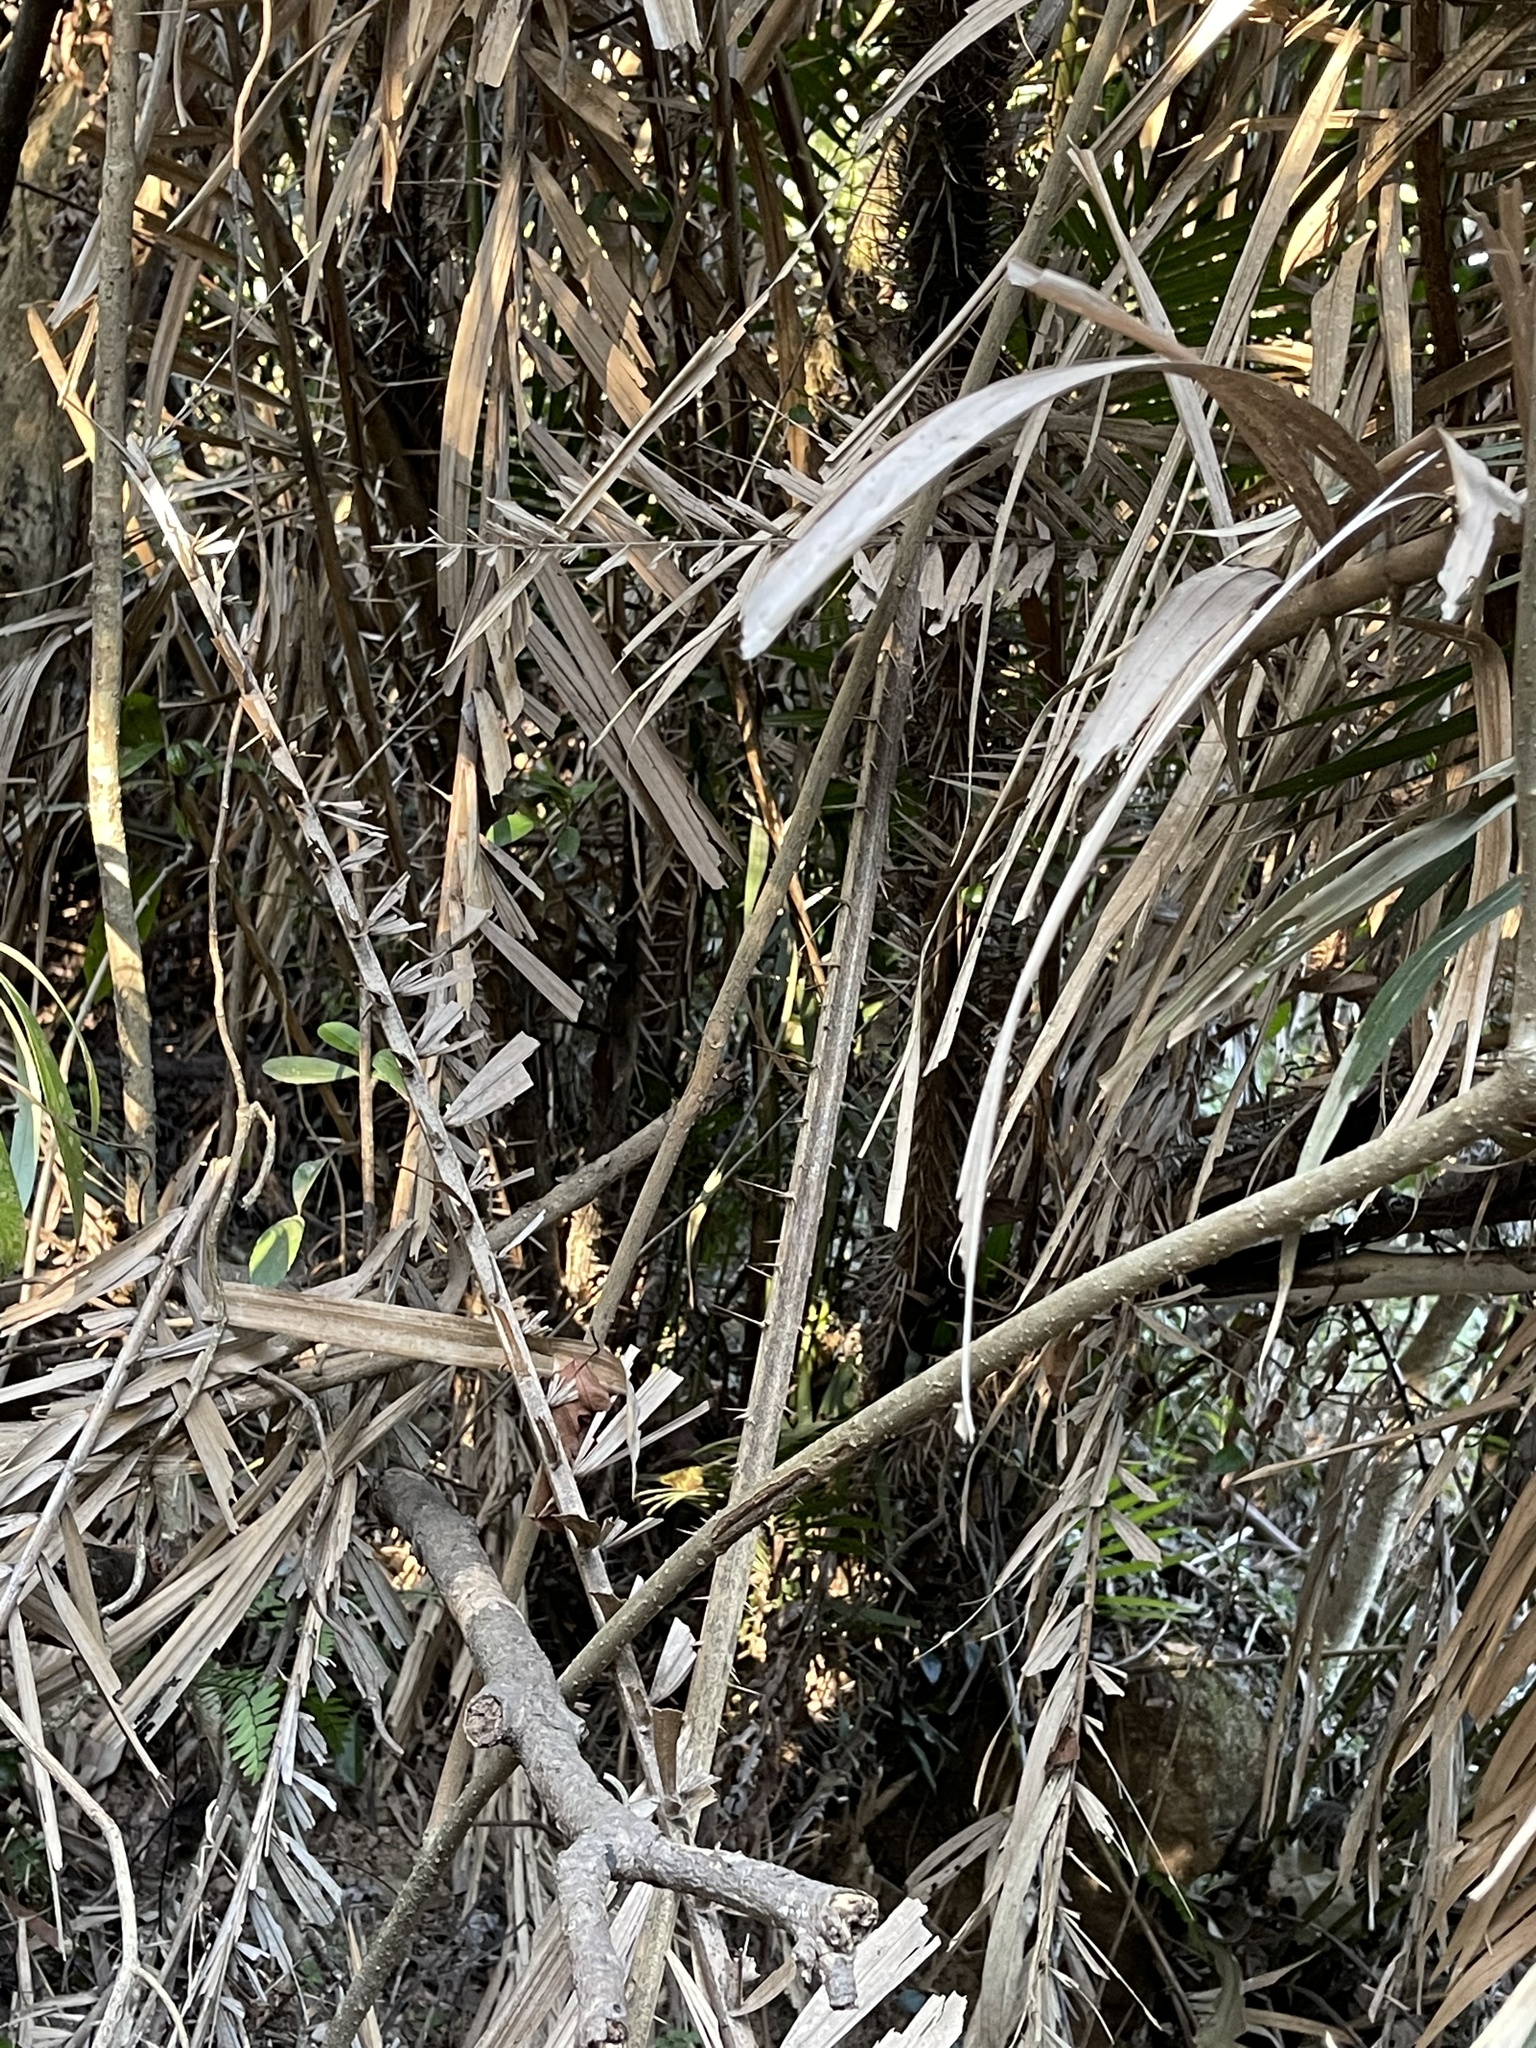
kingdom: Plantae
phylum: Tracheophyta
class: Liliopsida
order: Arecales
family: Arecaceae
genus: Calamus
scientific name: Calamus melanochaetes
